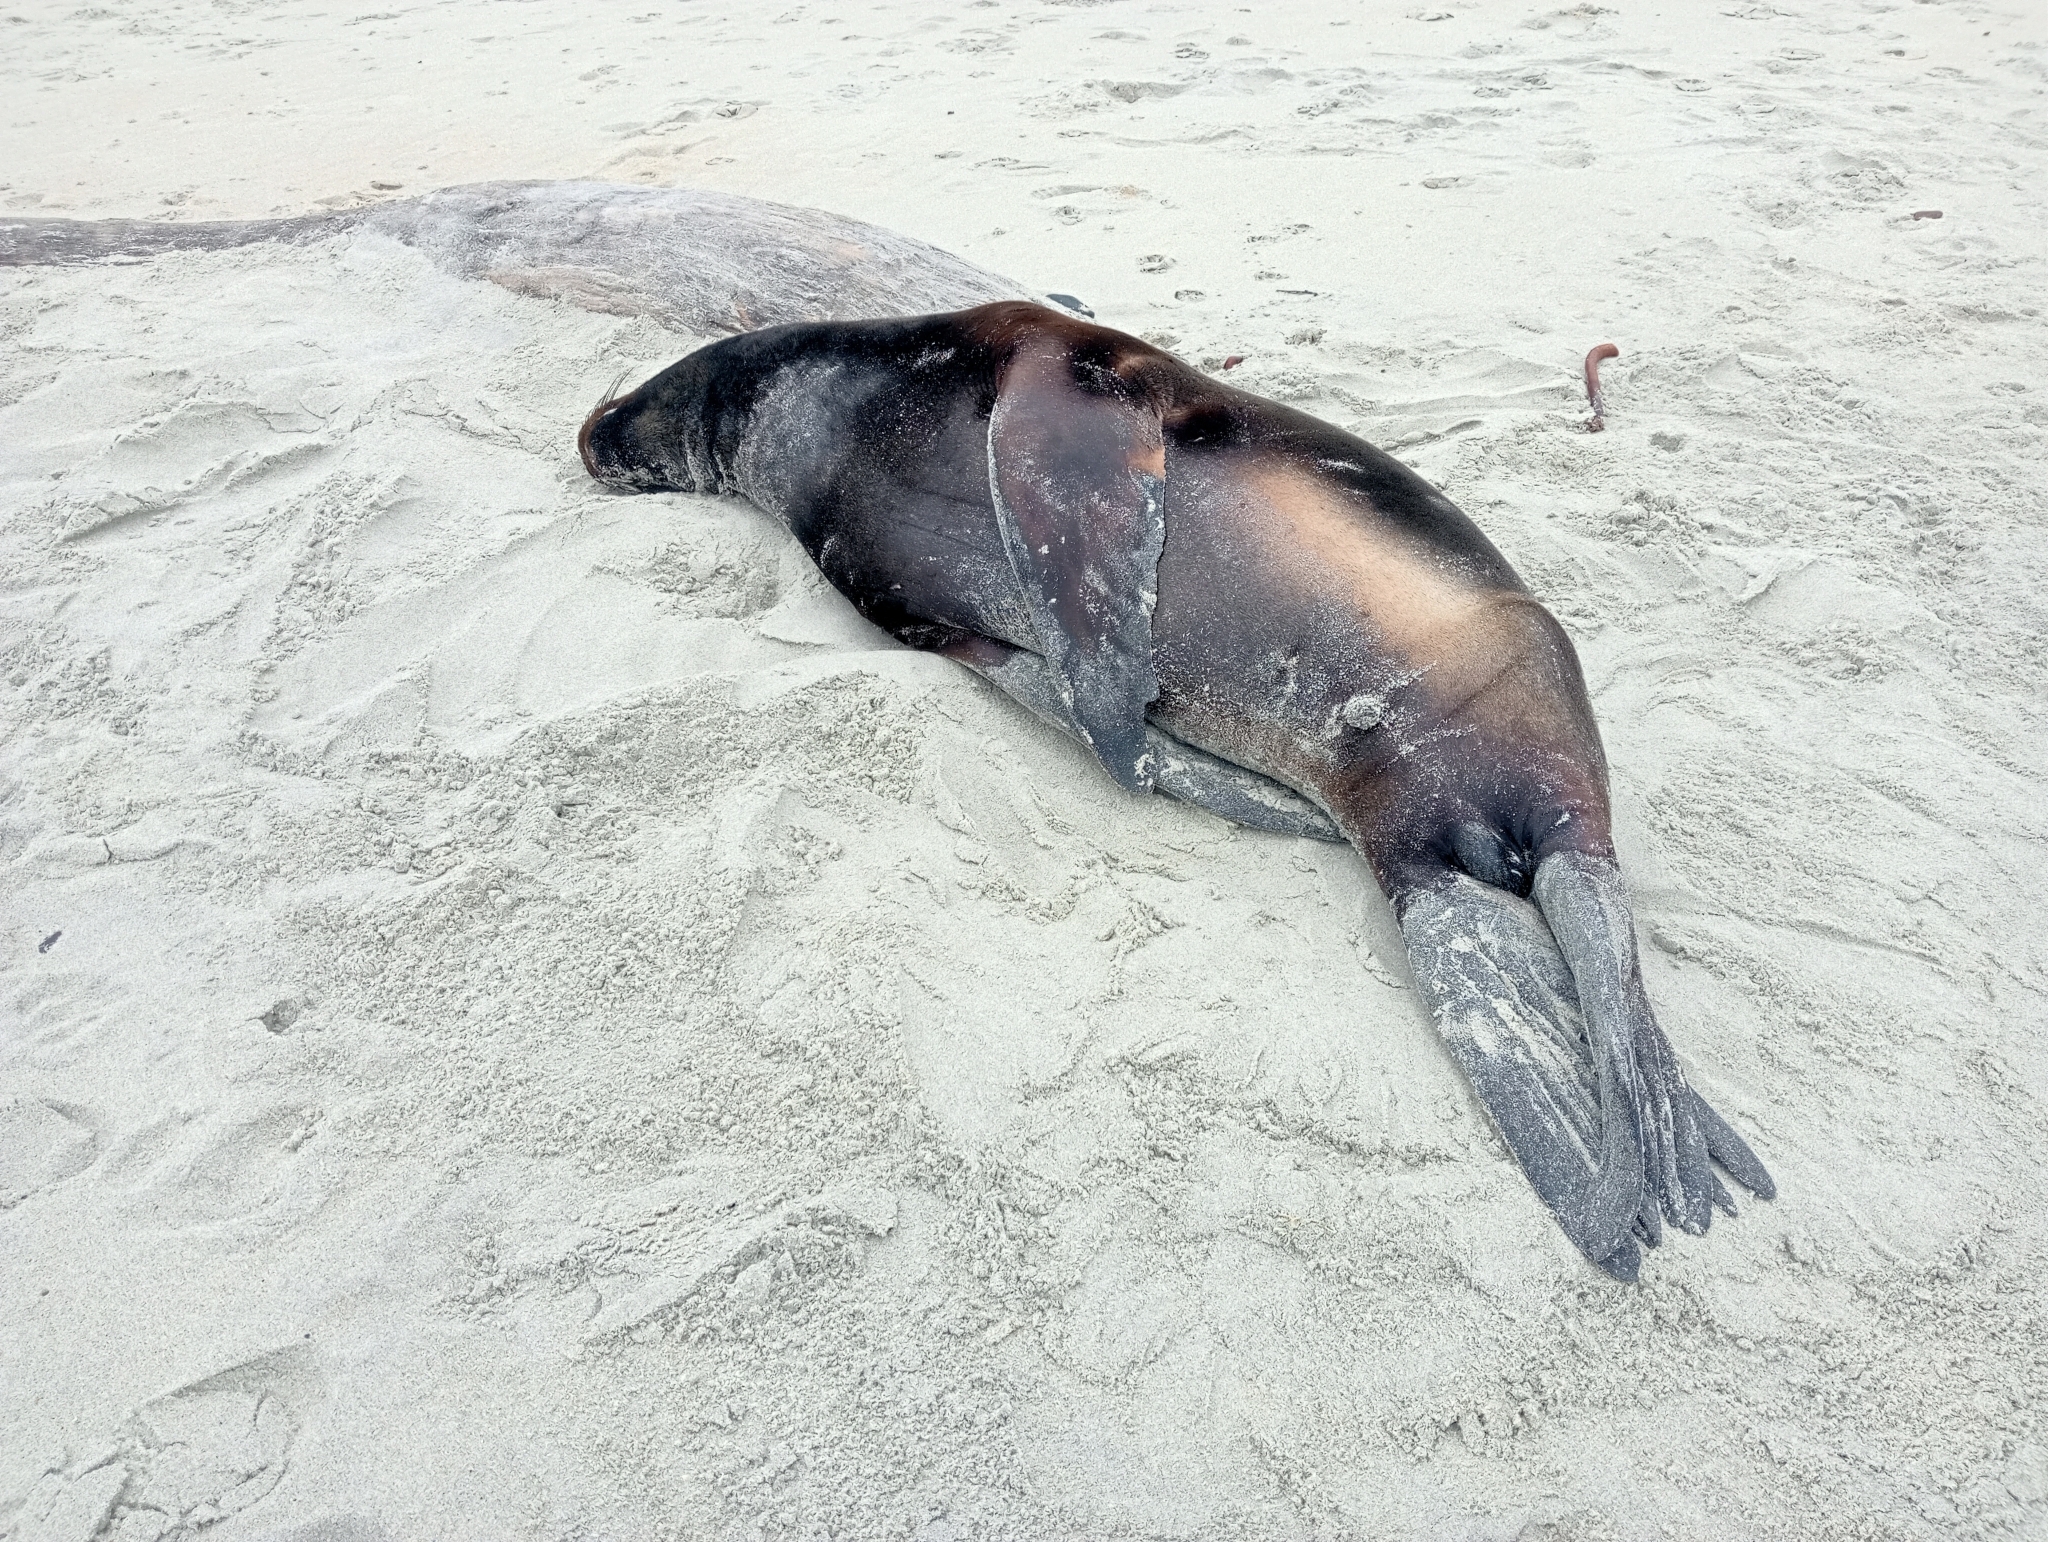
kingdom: Animalia
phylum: Chordata
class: Mammalia
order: Carnivora
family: Otariidae
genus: Phocarctos
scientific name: Phocarctos hookeri
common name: New zealand sea lion
